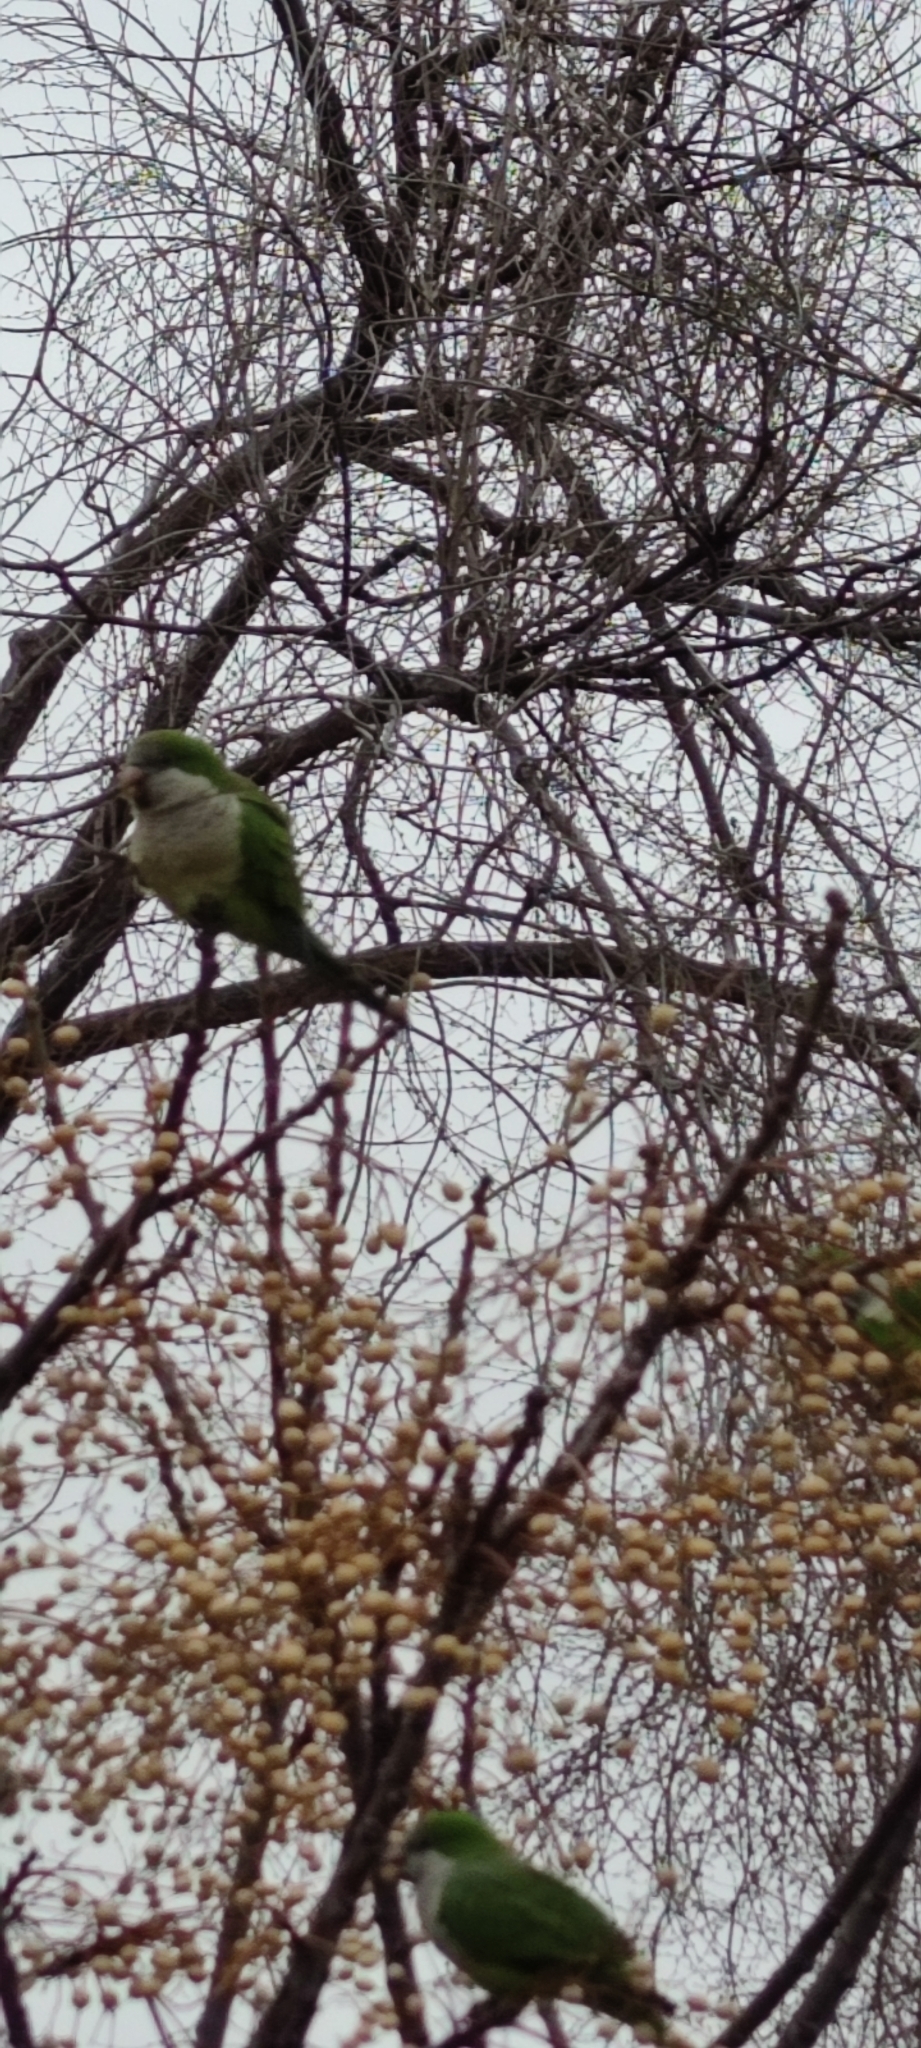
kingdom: Animalia
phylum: Chordata
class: Aves
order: Psittaciformes
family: Psittacidae
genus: Myiopsitta
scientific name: Myiopsitta monachus
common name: Monk parakeet
